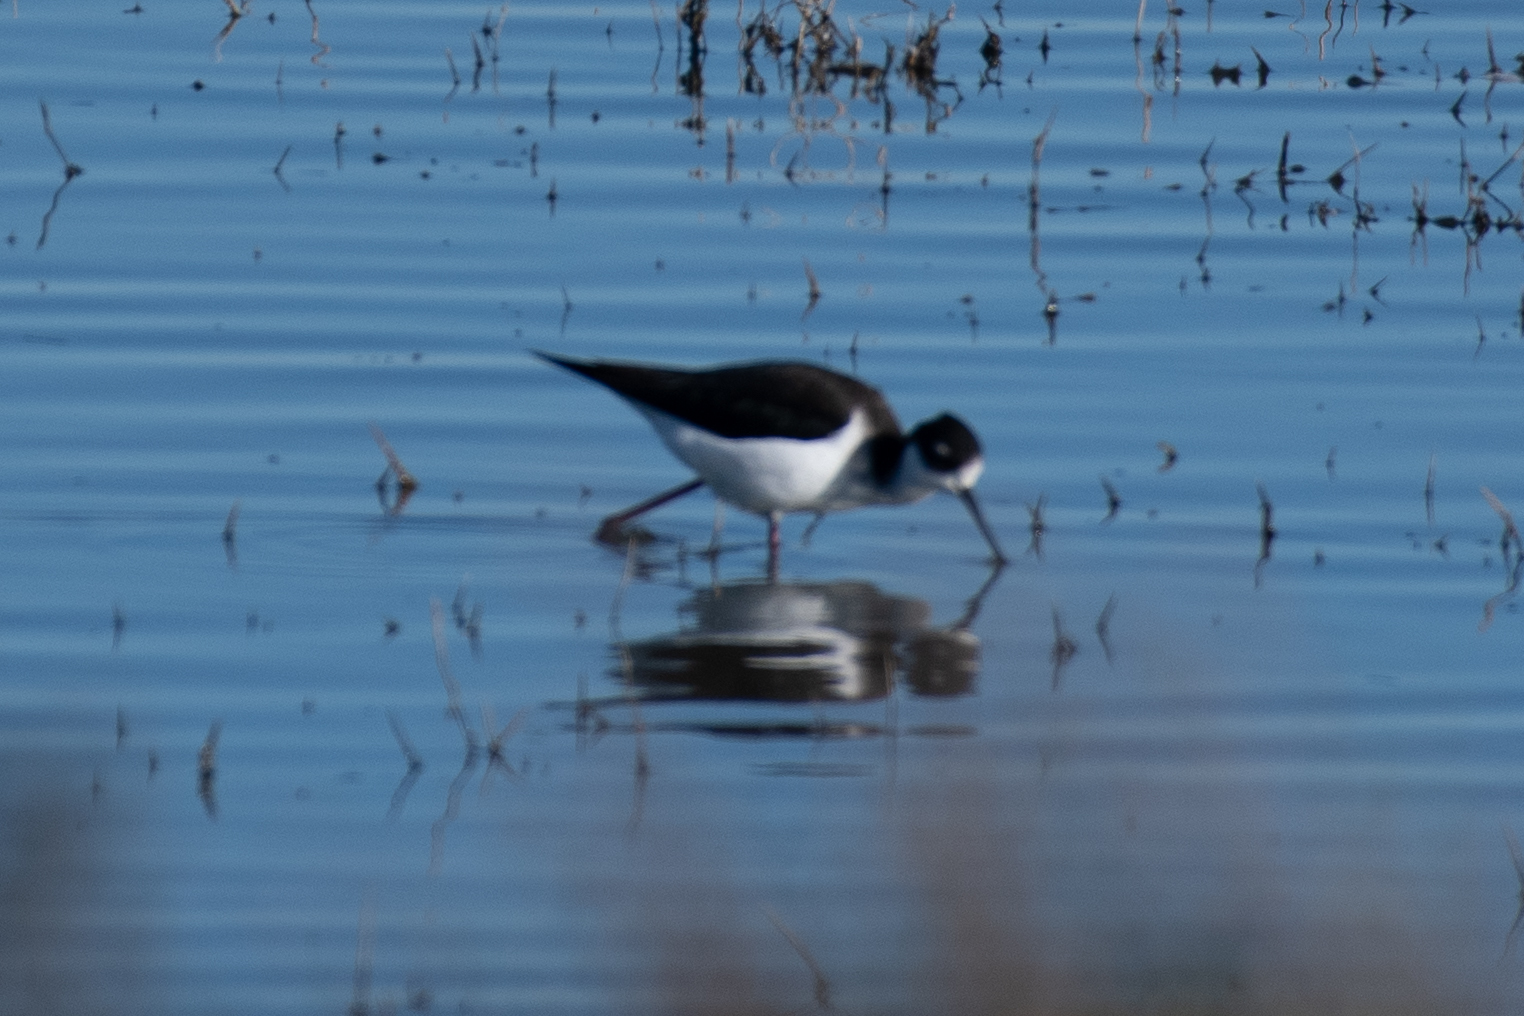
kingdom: Animalia
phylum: Chordata
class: Aves
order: Charadriiformes
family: Recurvirostridae
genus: Himantopus
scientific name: Himantopus mexicanus
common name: Black-necked stilt
